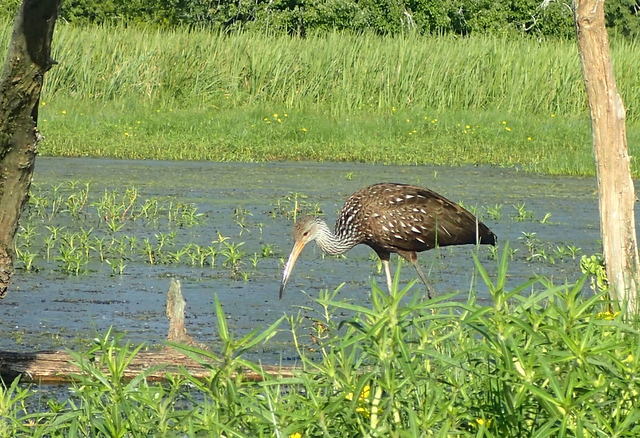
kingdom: Animalia
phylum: Chordata
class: Aves
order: Gruiformes
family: Aramidae
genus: Aramus
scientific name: Aramus guarauna
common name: Limpkin
